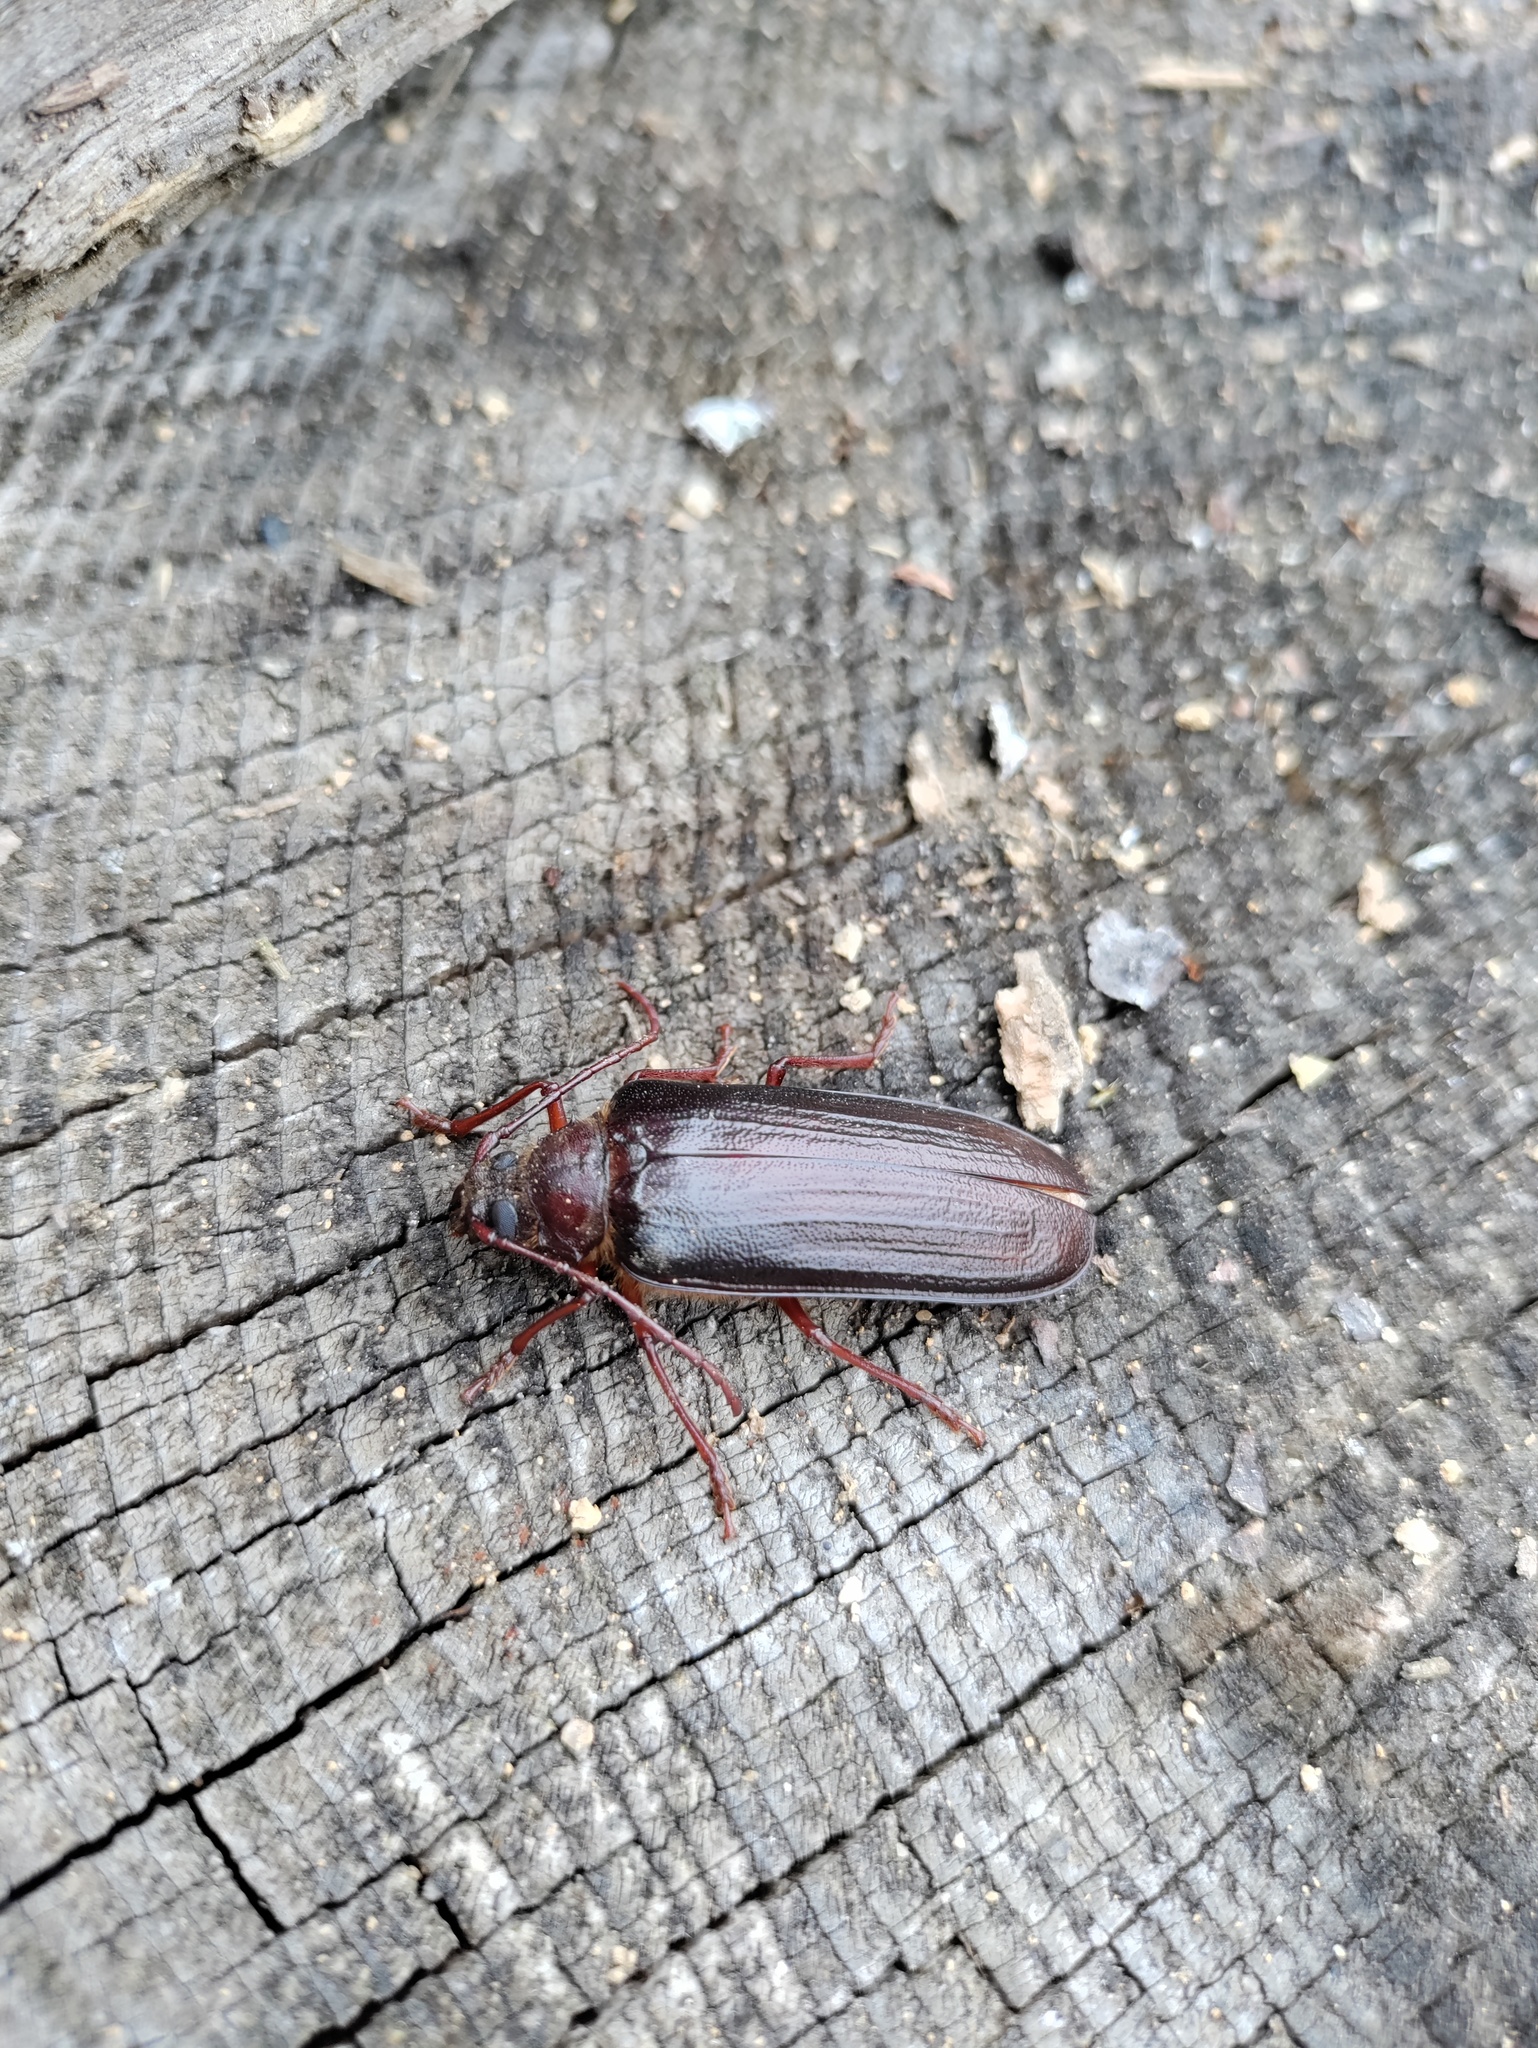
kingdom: Animalia
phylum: Arthropoda
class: Insecta
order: Coleoptera
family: Cerambycidae
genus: Tragosoma
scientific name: Tragosoma depsarium
